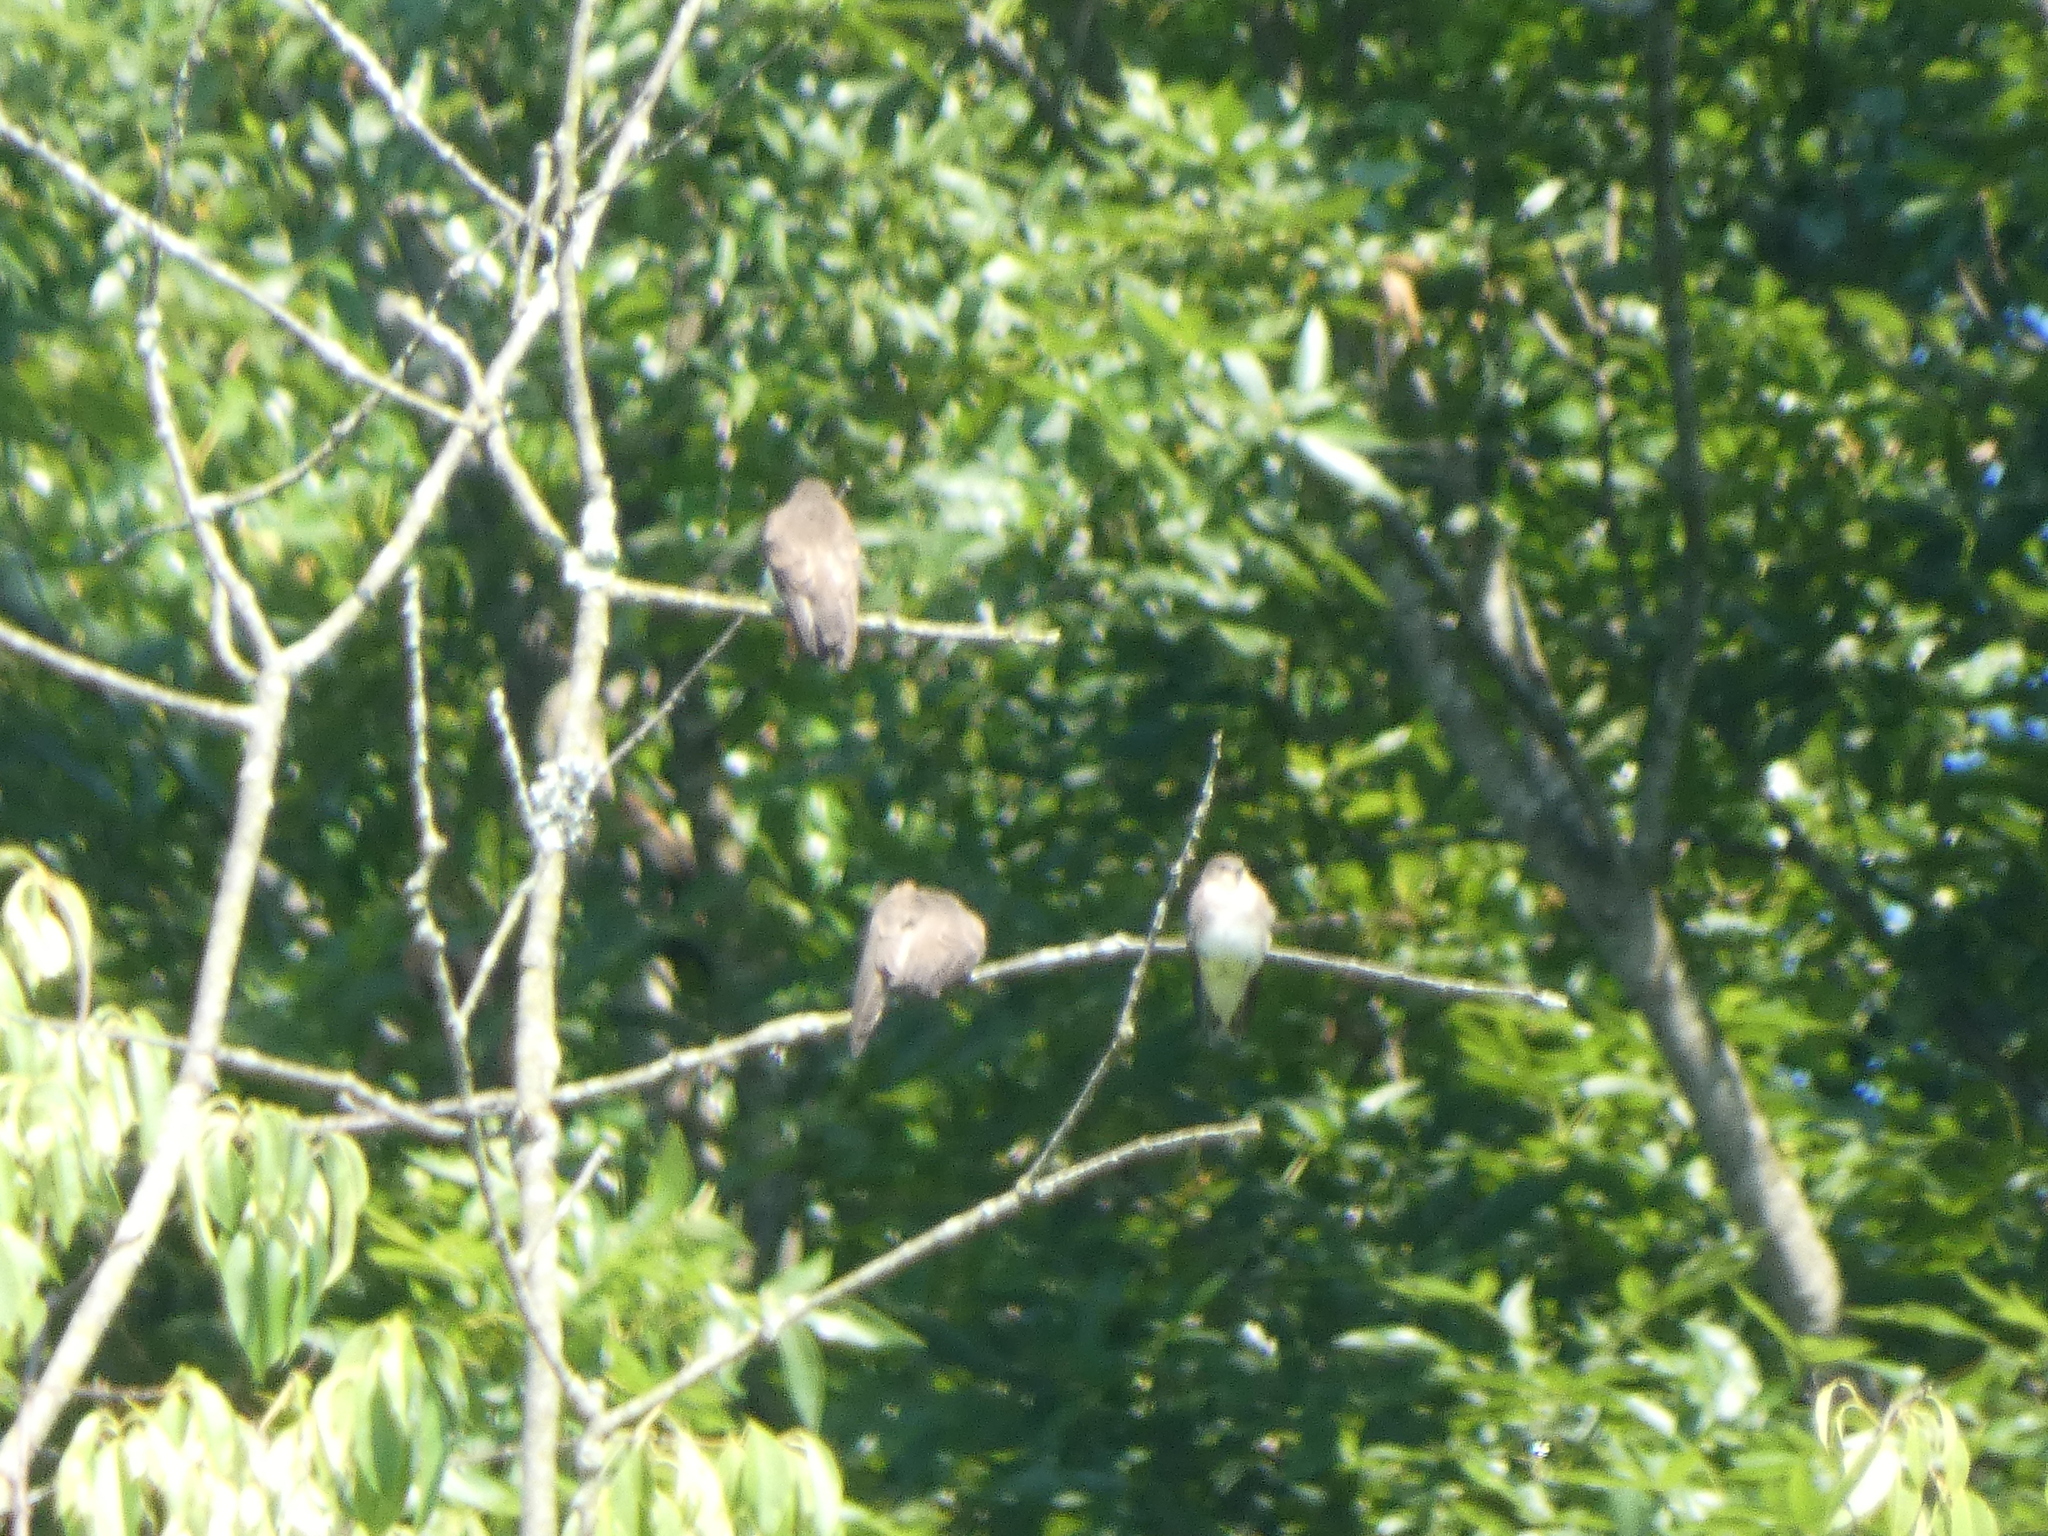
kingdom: Animalia
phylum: Chordata
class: Aves
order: Passeriformes
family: Hirundinidae
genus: Stelgidopteryx
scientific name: Stelgidopteryx serripennis
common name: Northern rough-winged swallow
